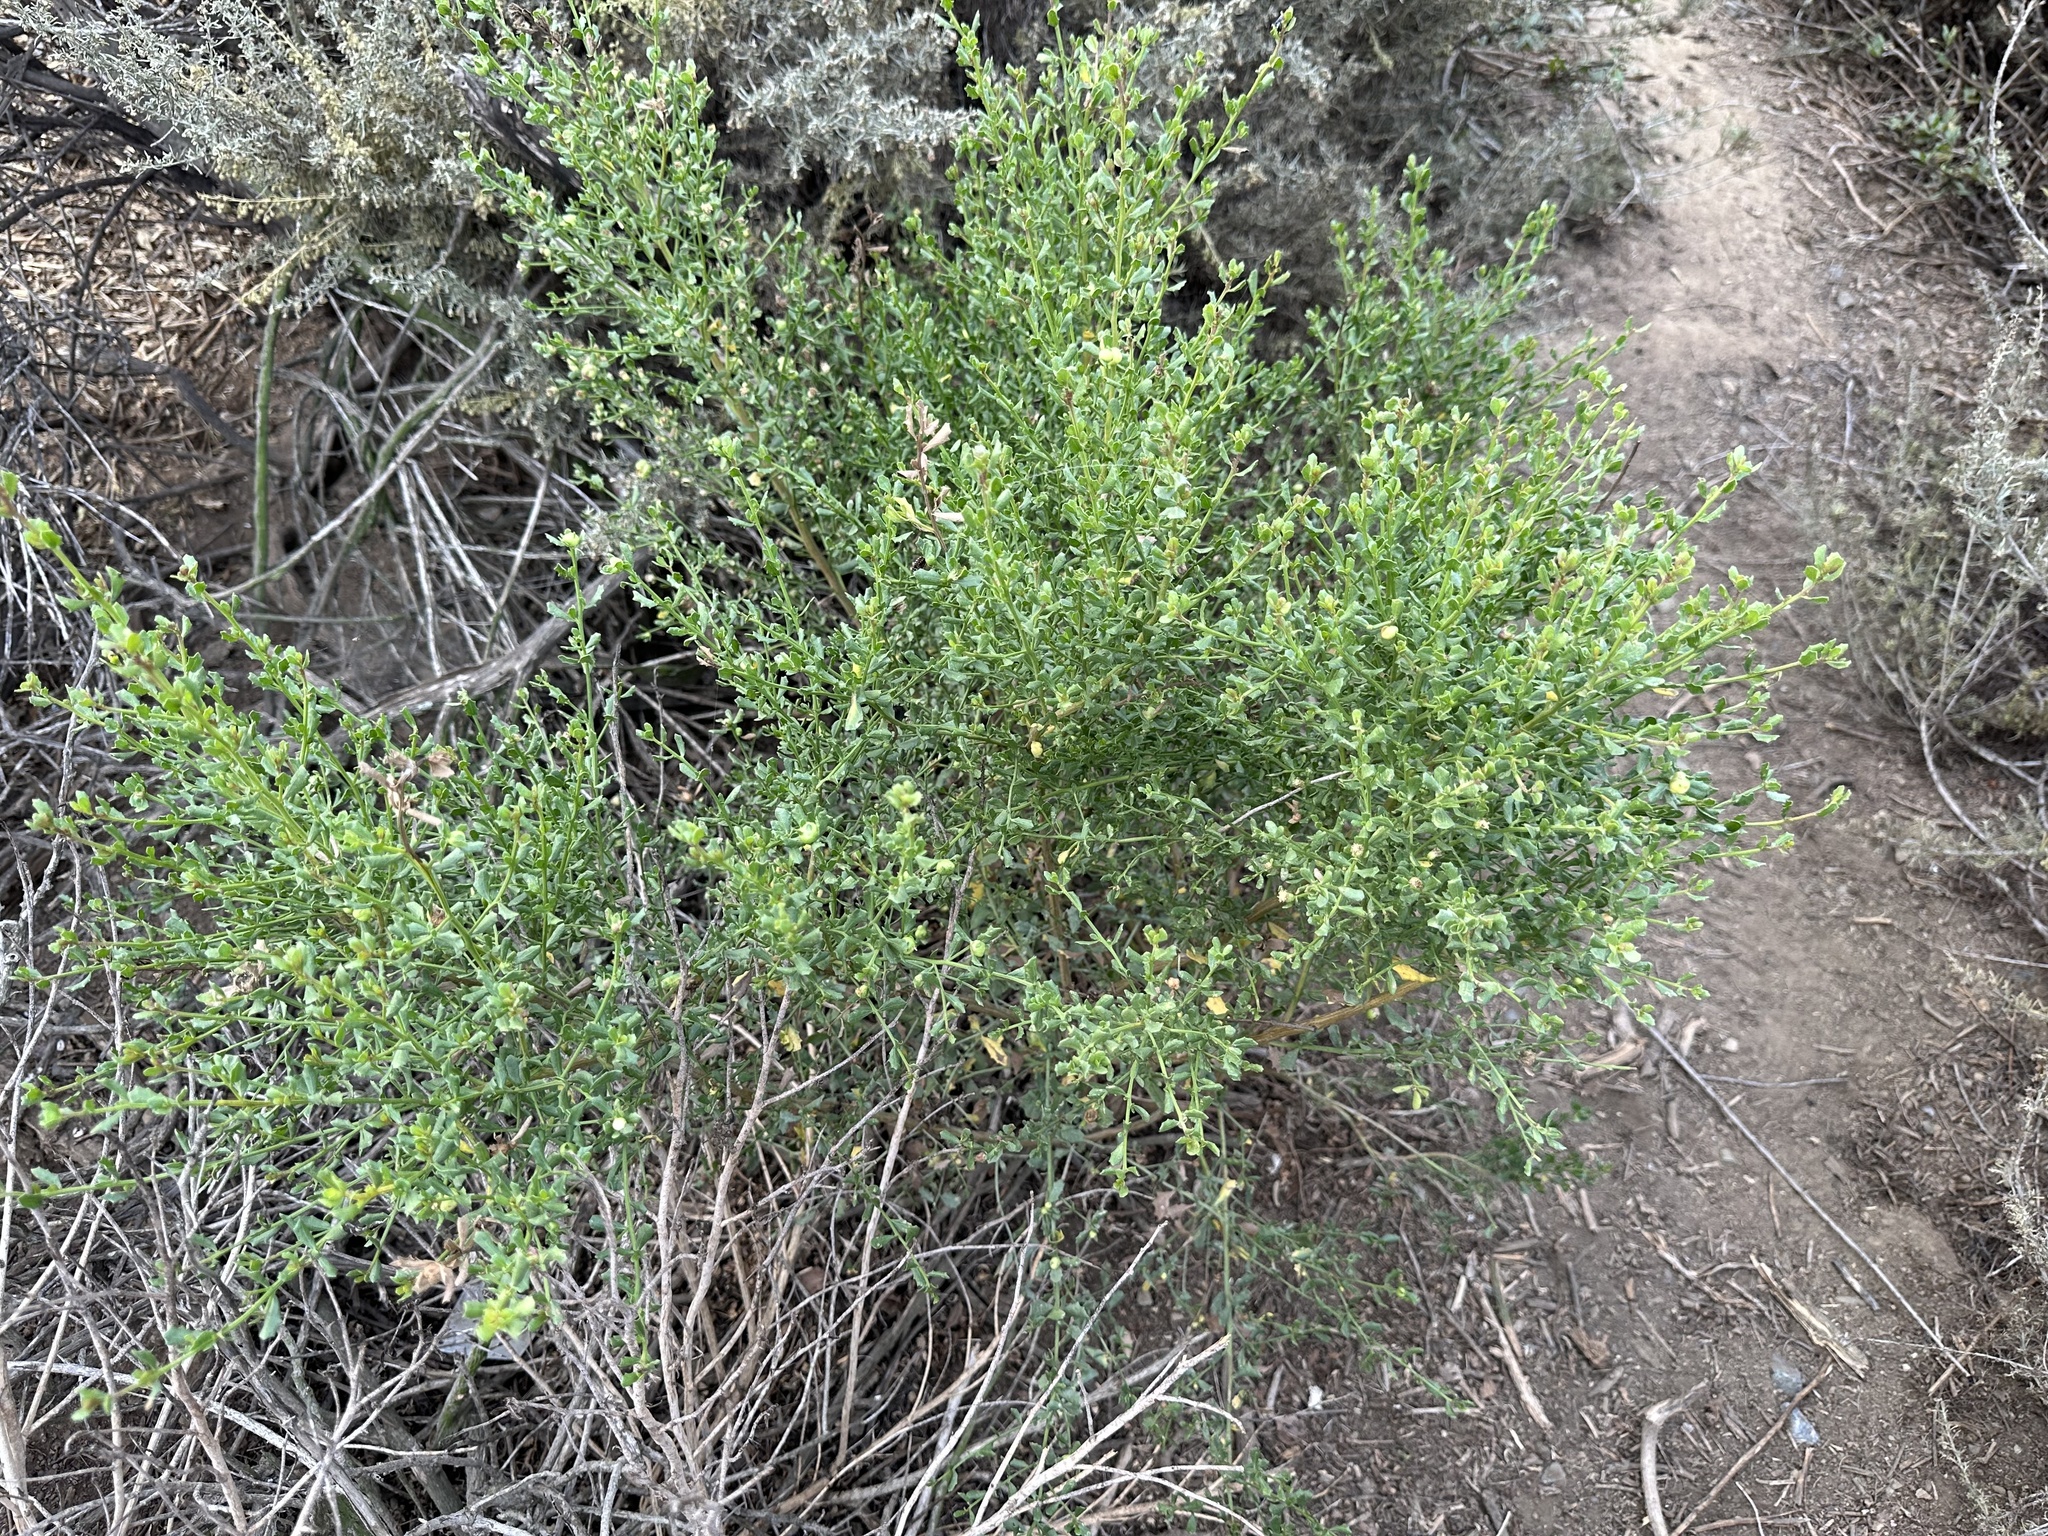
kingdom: Plantae
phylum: Tracheophyta
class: Magnoliopsida
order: Asterales
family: Asteraceae
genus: Baccharis
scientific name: Baccharis pilularis
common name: Coyotebrush
